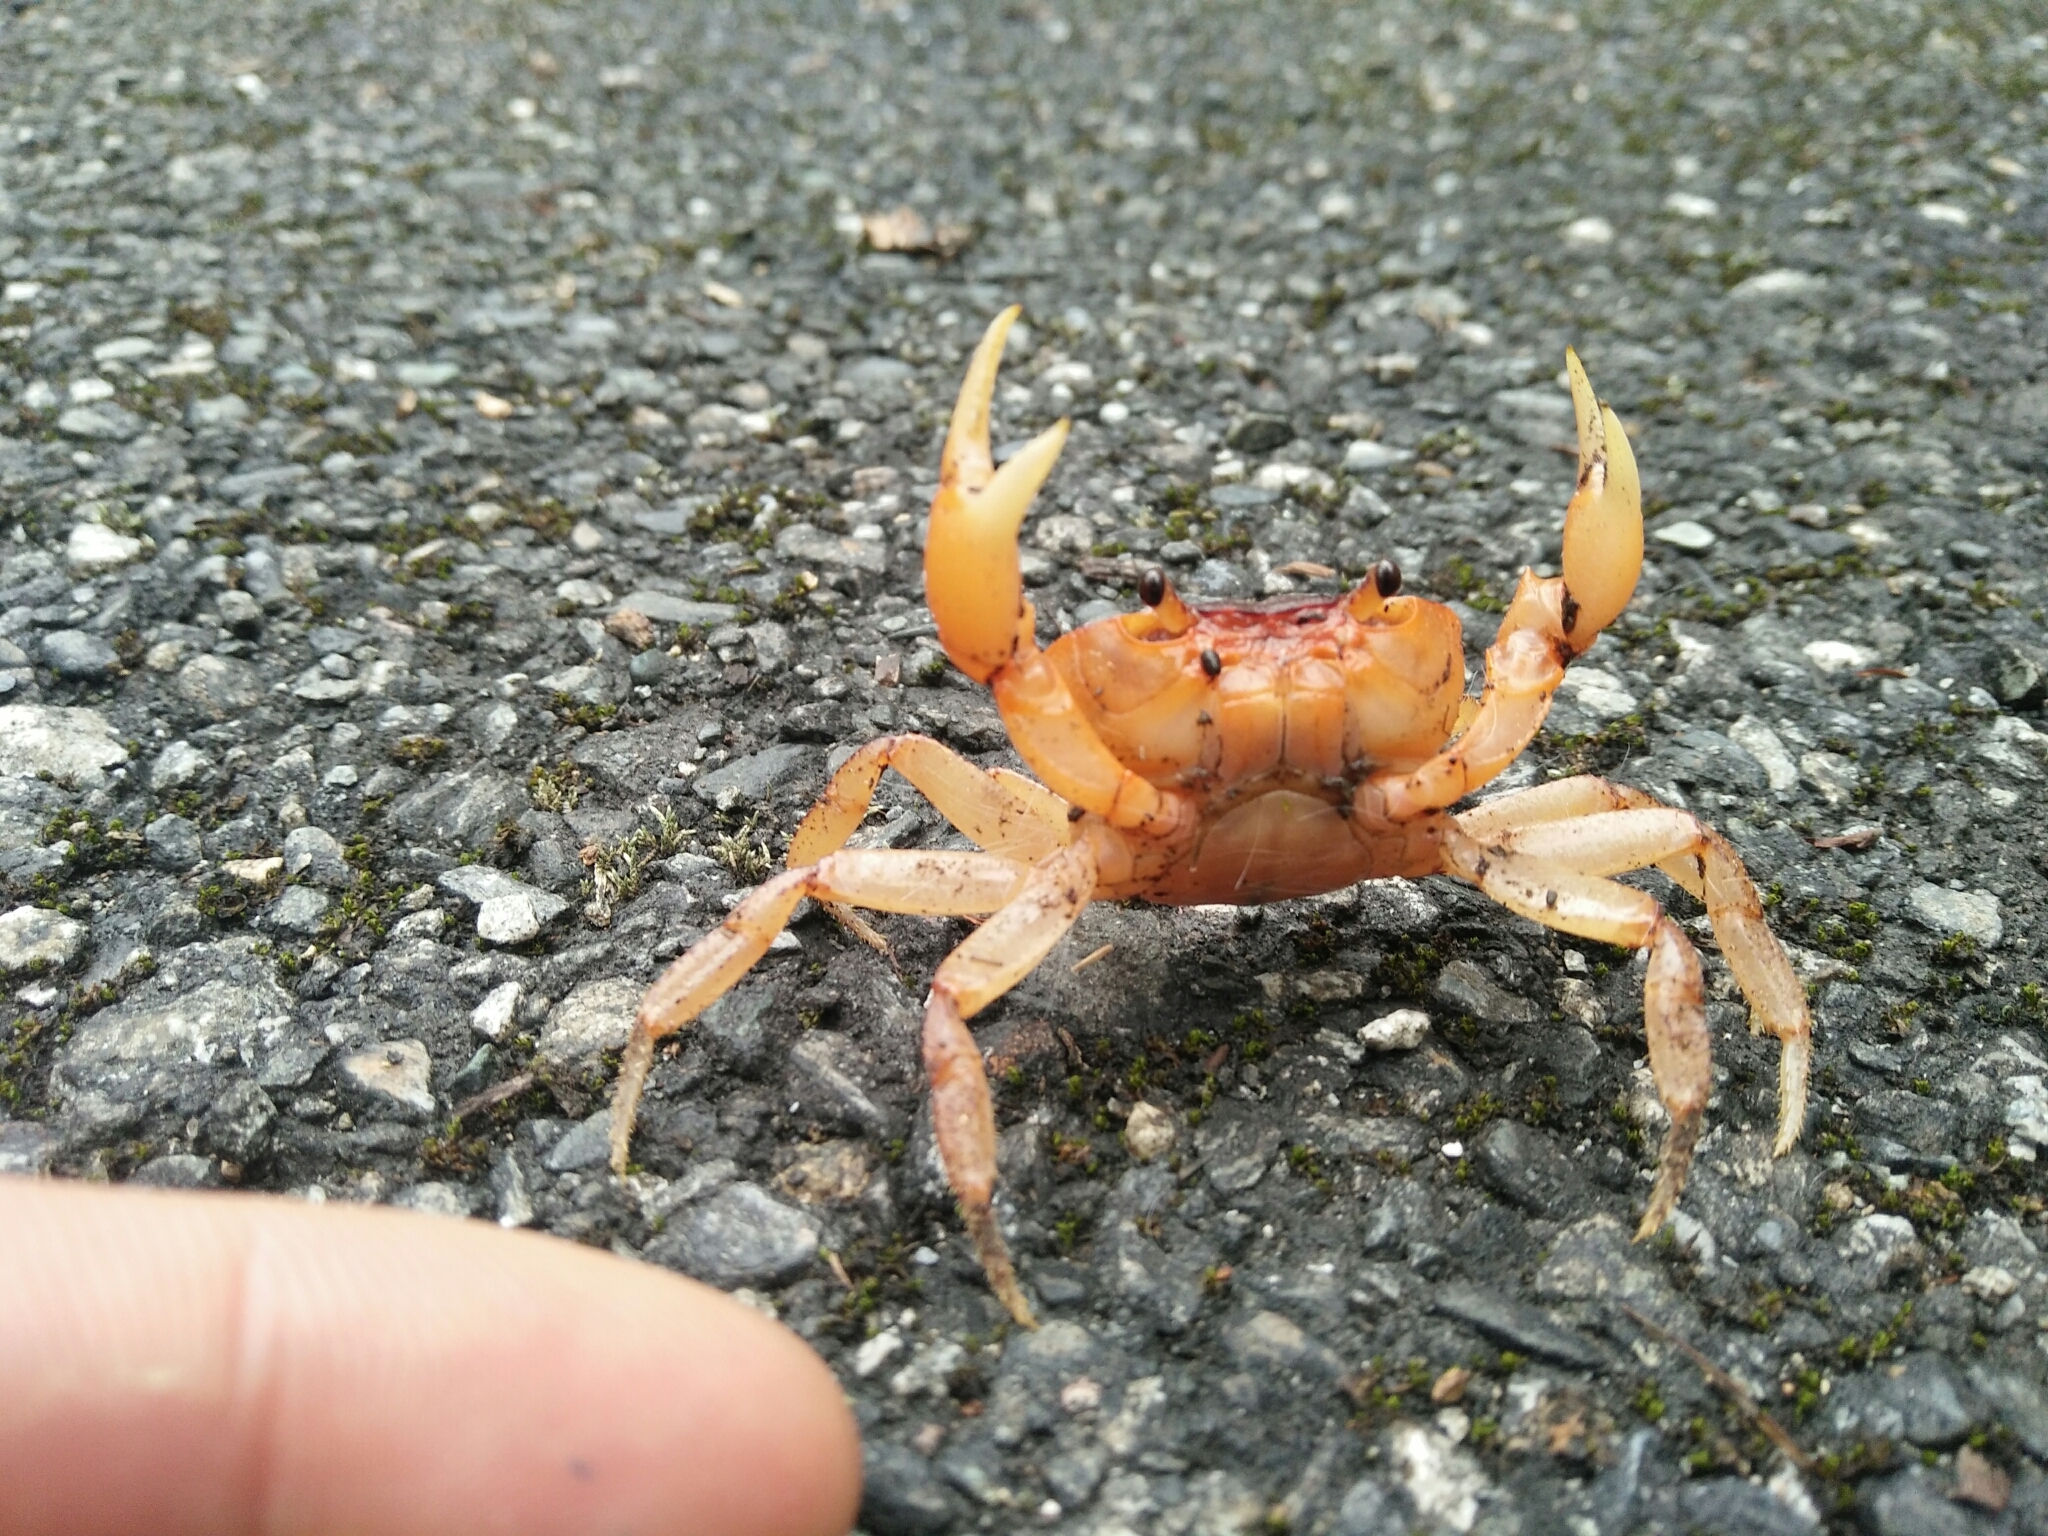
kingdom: Animalia
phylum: Arthropoda
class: Malacostraca
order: Decapoda
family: Potamidae
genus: Geothelphusa
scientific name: Geothelphusa bicolor
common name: Two-color crab
